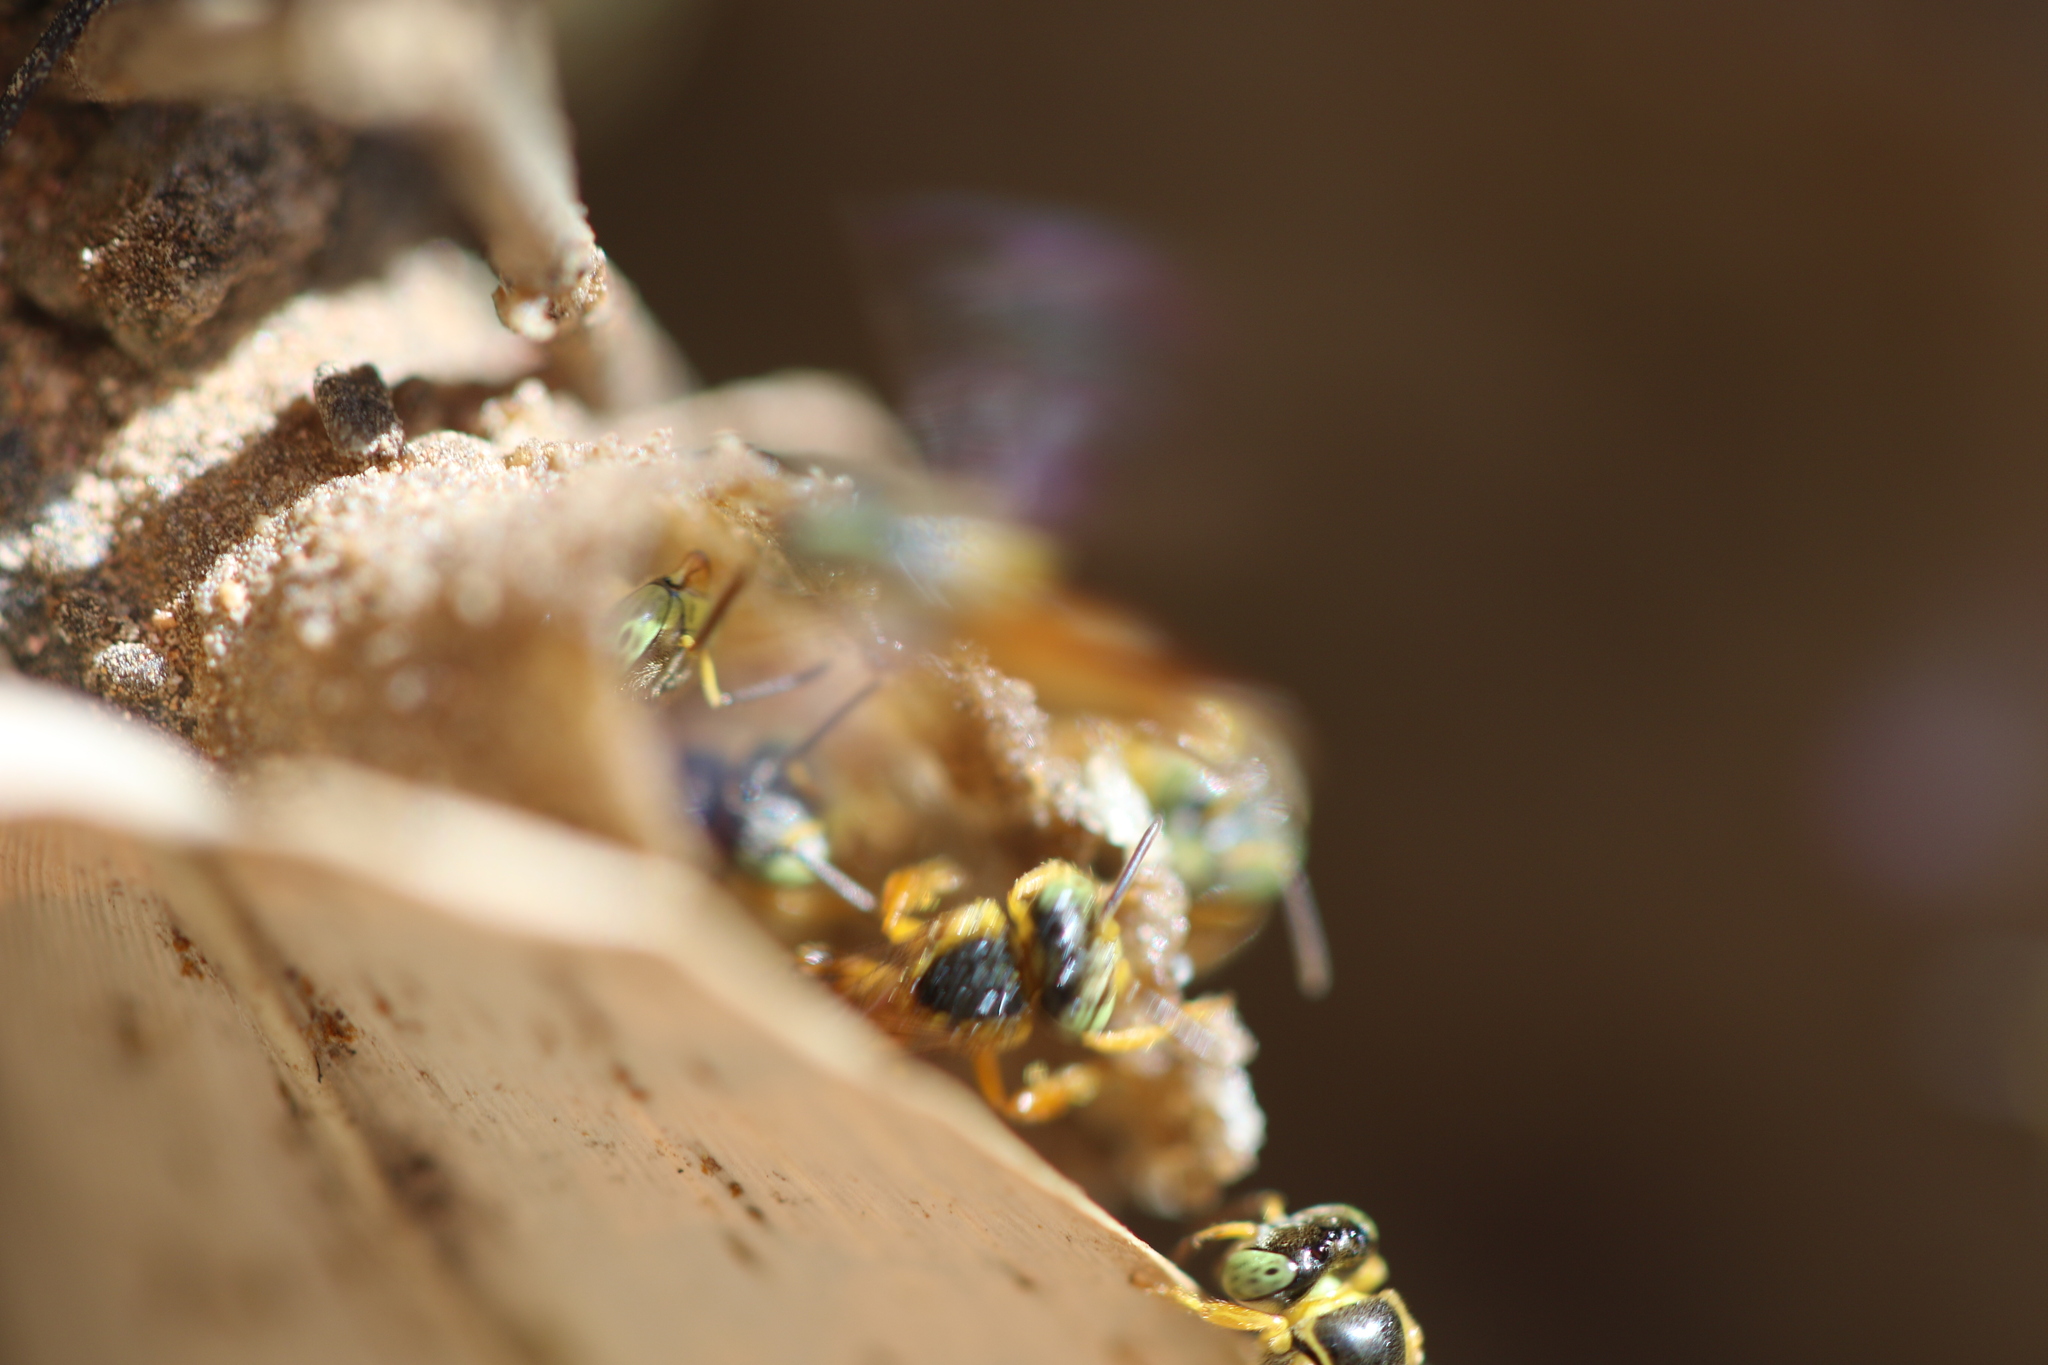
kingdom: Animalia
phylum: Arthropoda
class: Insecta
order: Hymenoptera
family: Apidae
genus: Tetragonisca
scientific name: Tetragonisca angustula
